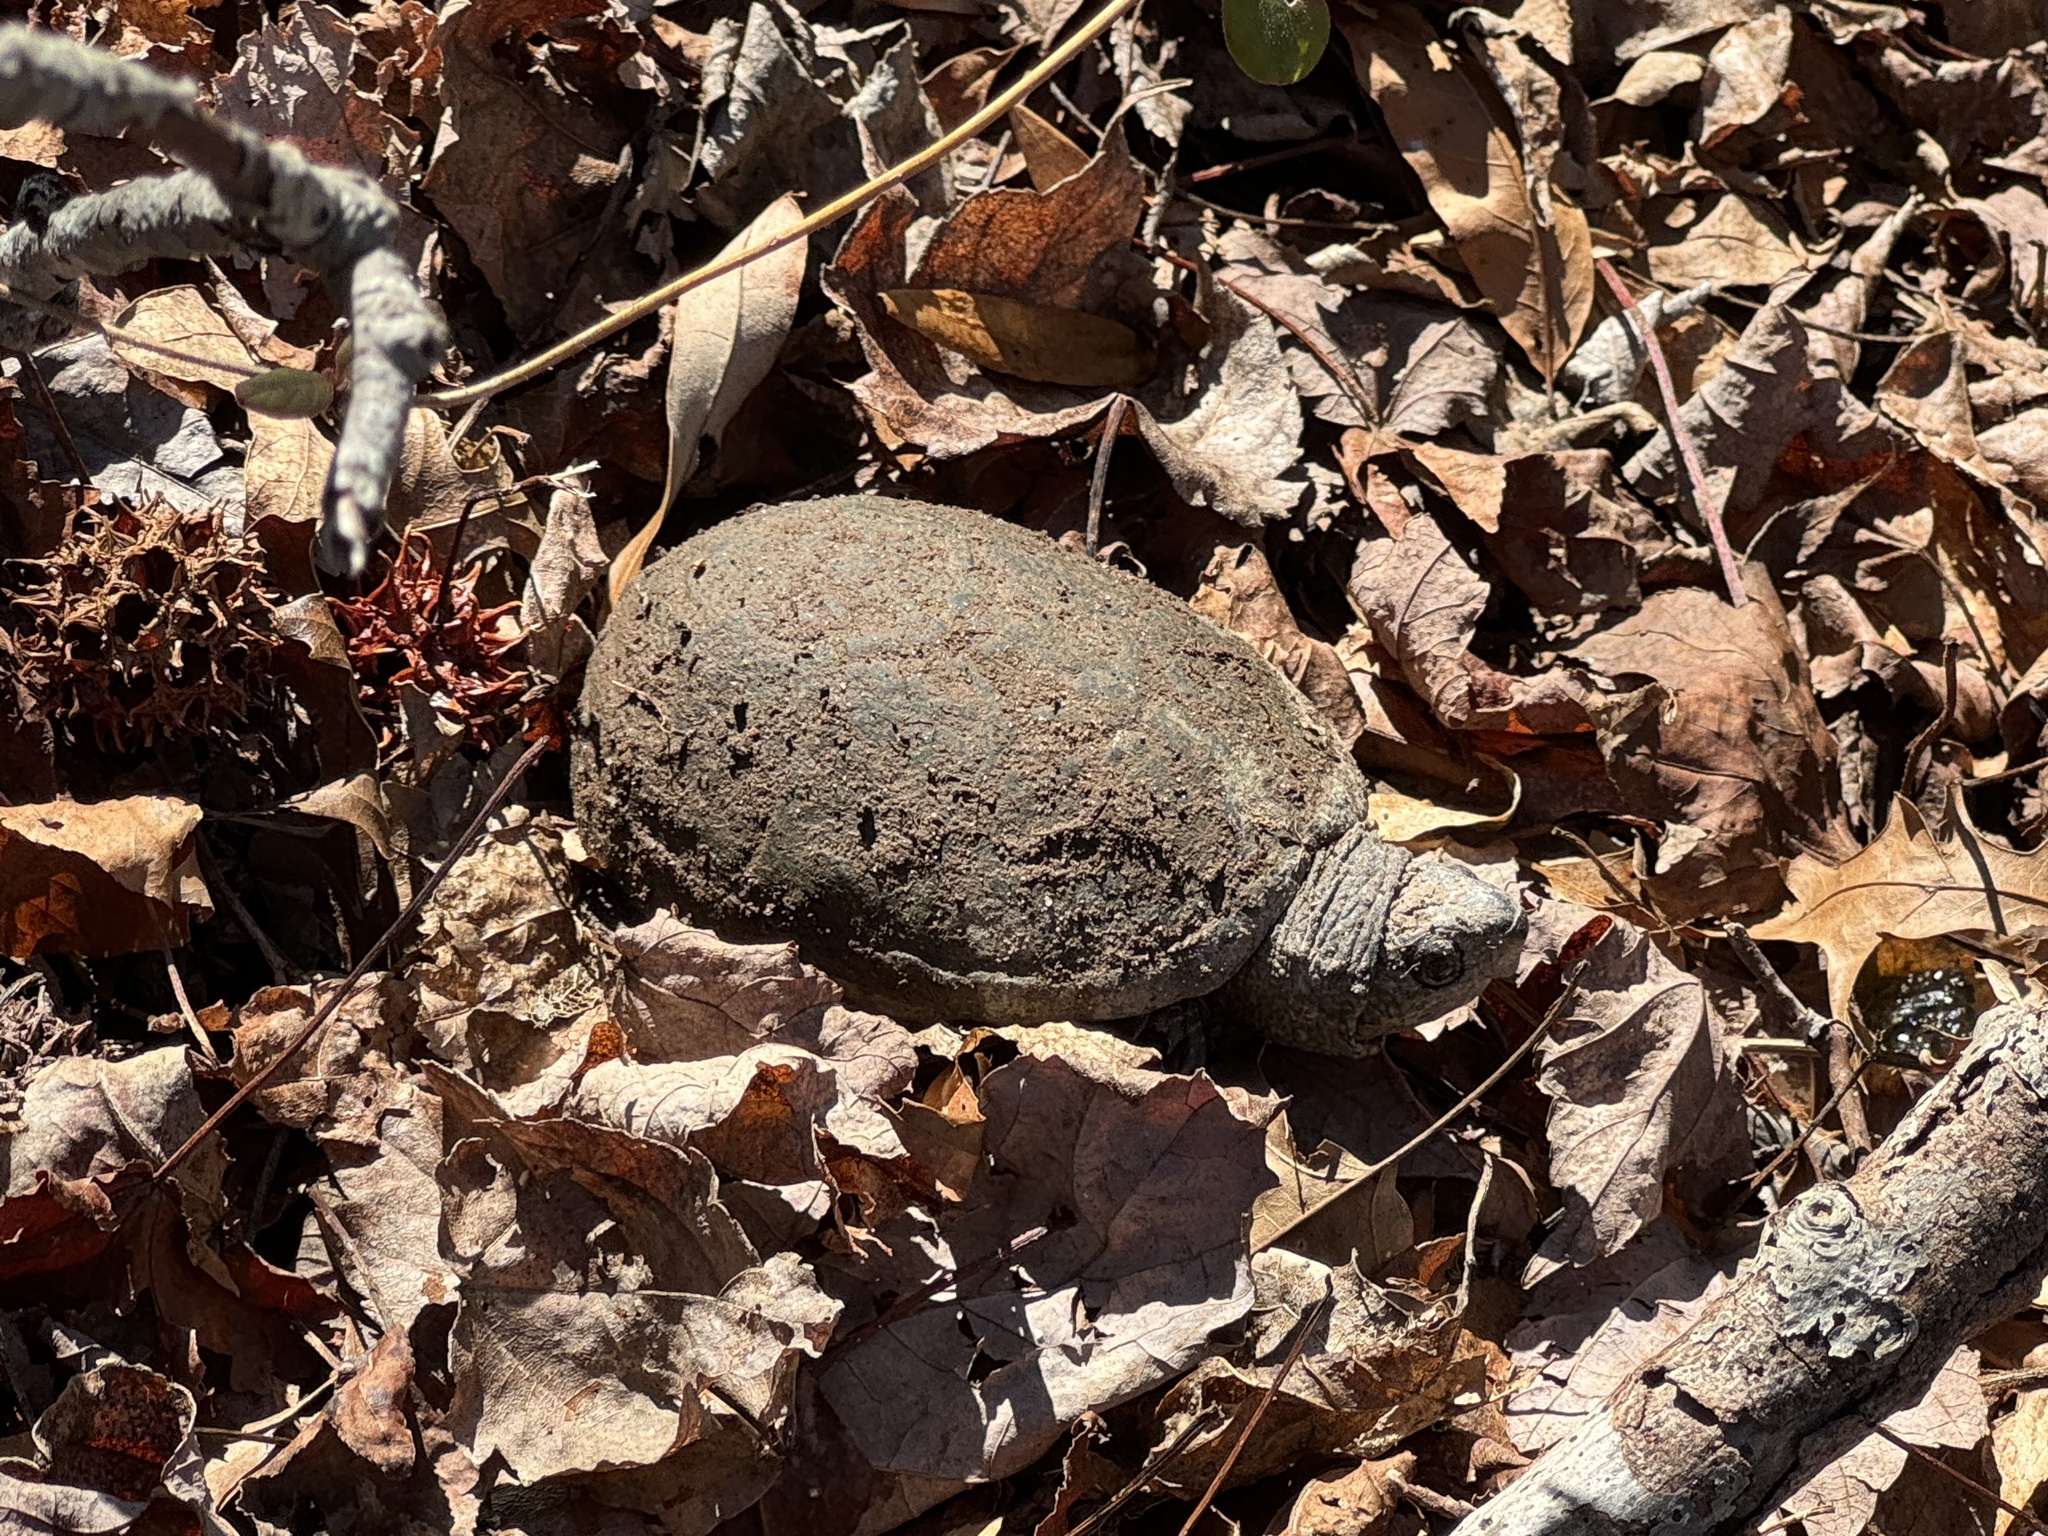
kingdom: Animalia
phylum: Chordata
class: Testudines
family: Kinosternidae
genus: Kinosternon
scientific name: Kinosternon subrubrum
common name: Eastern mud turtle
